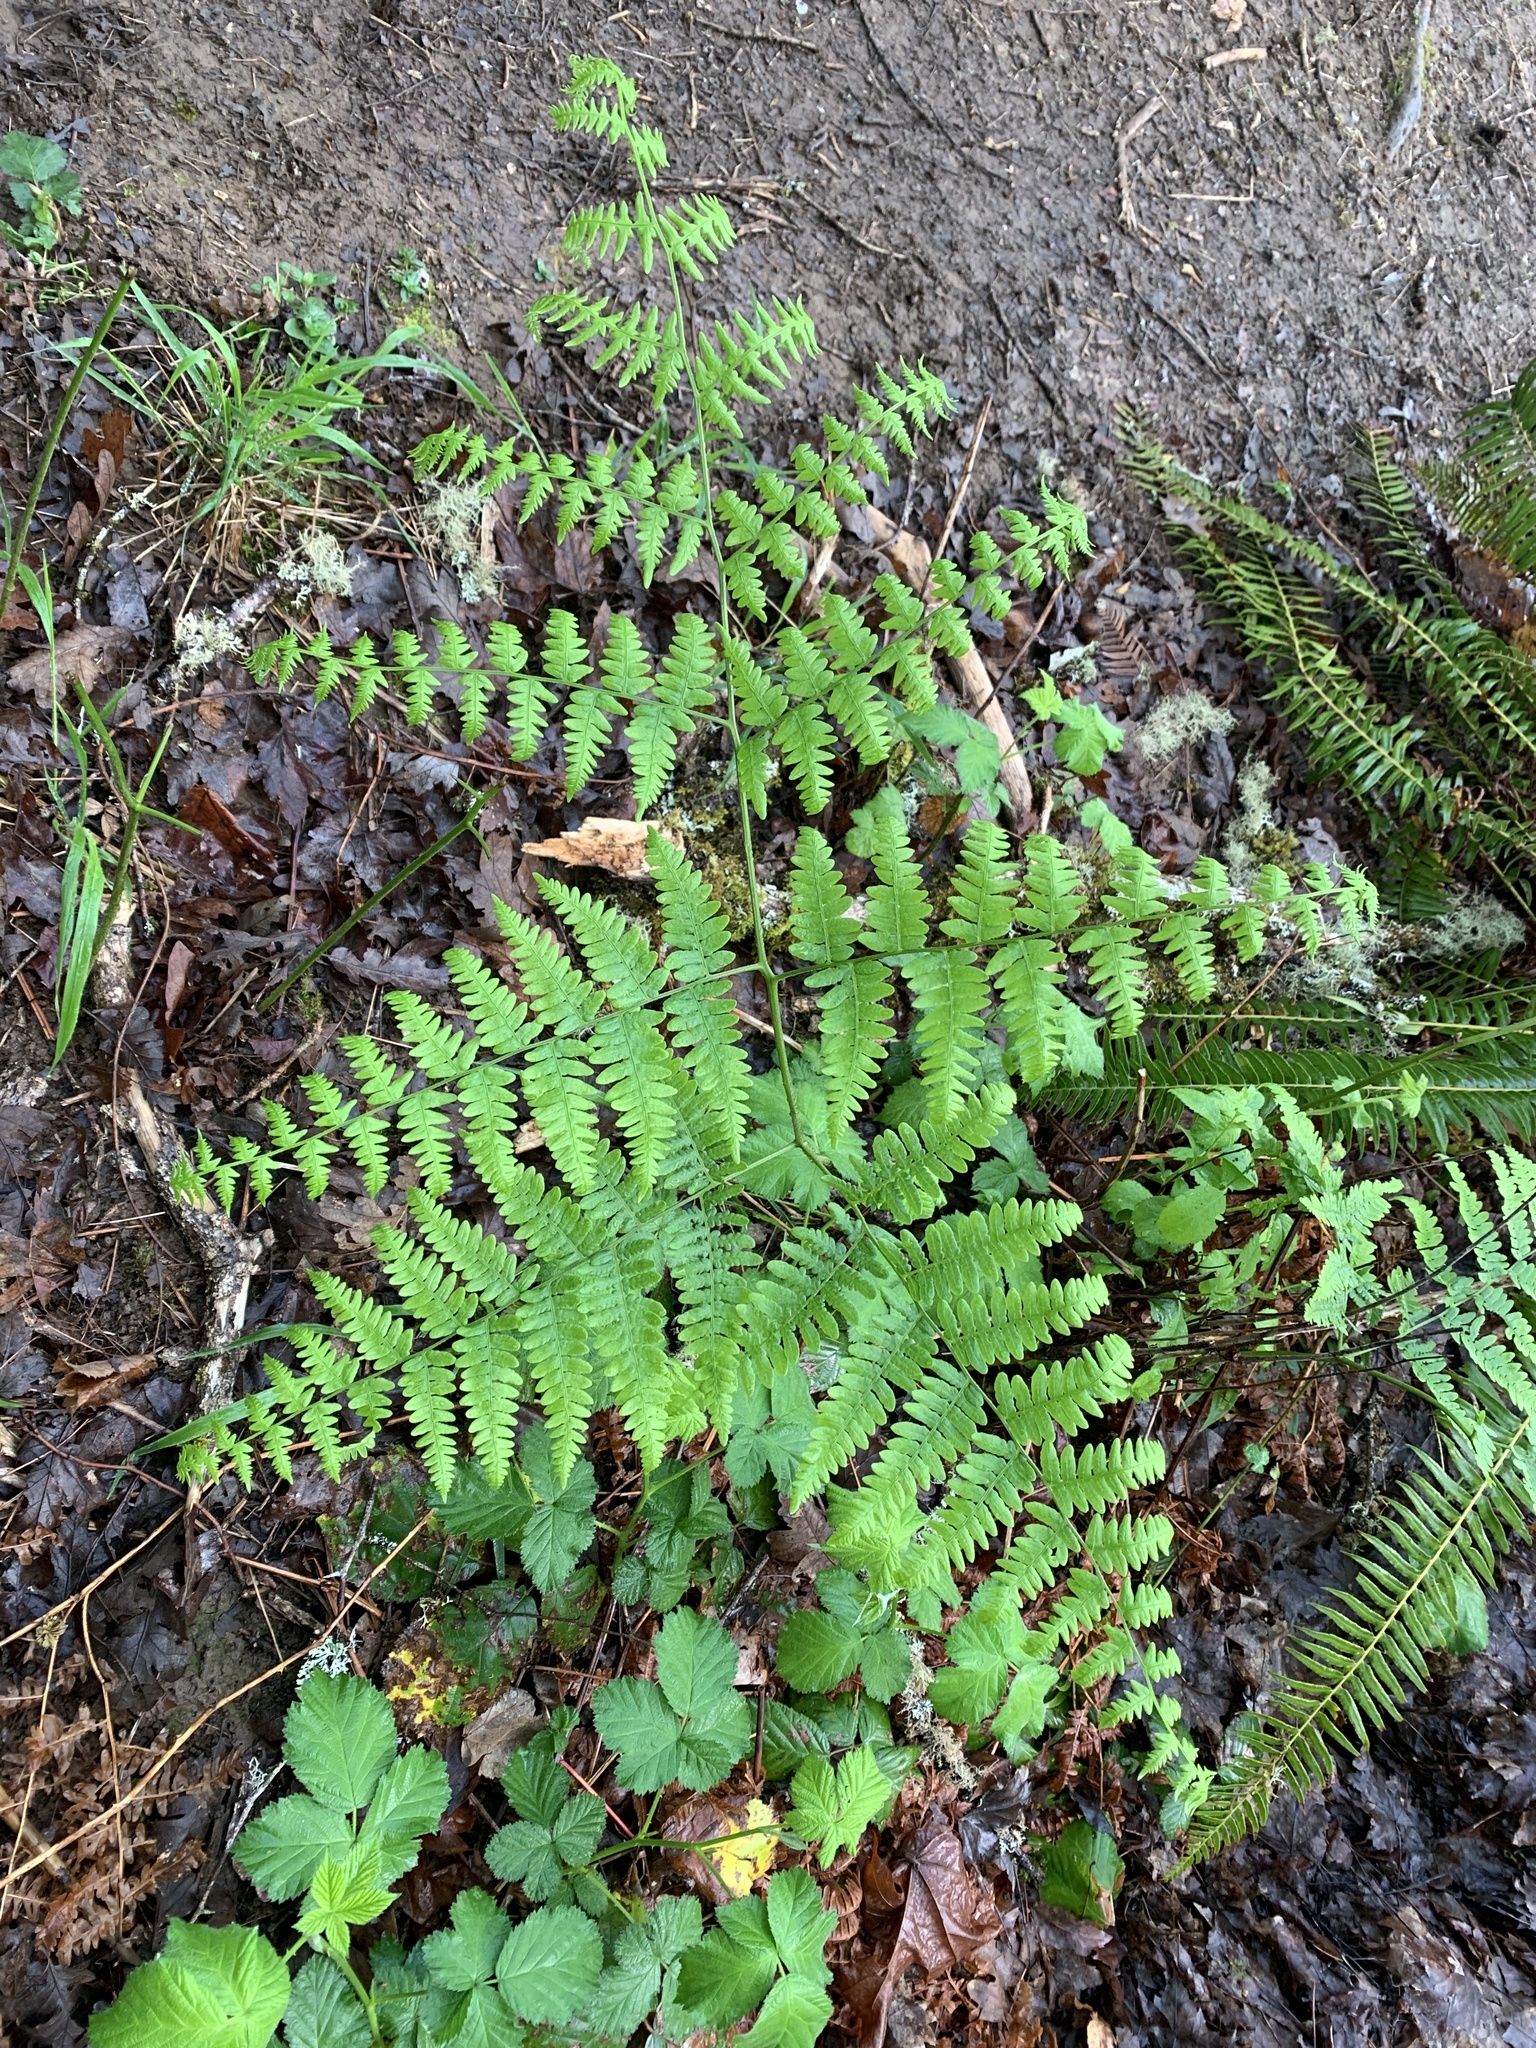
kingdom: Plantae
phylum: Tracheophyta
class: Polypodiopsida
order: Polypodiales
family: Dennstaedtiaceae
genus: Pteridium
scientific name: Pteridium aquilinum
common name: Bracken
